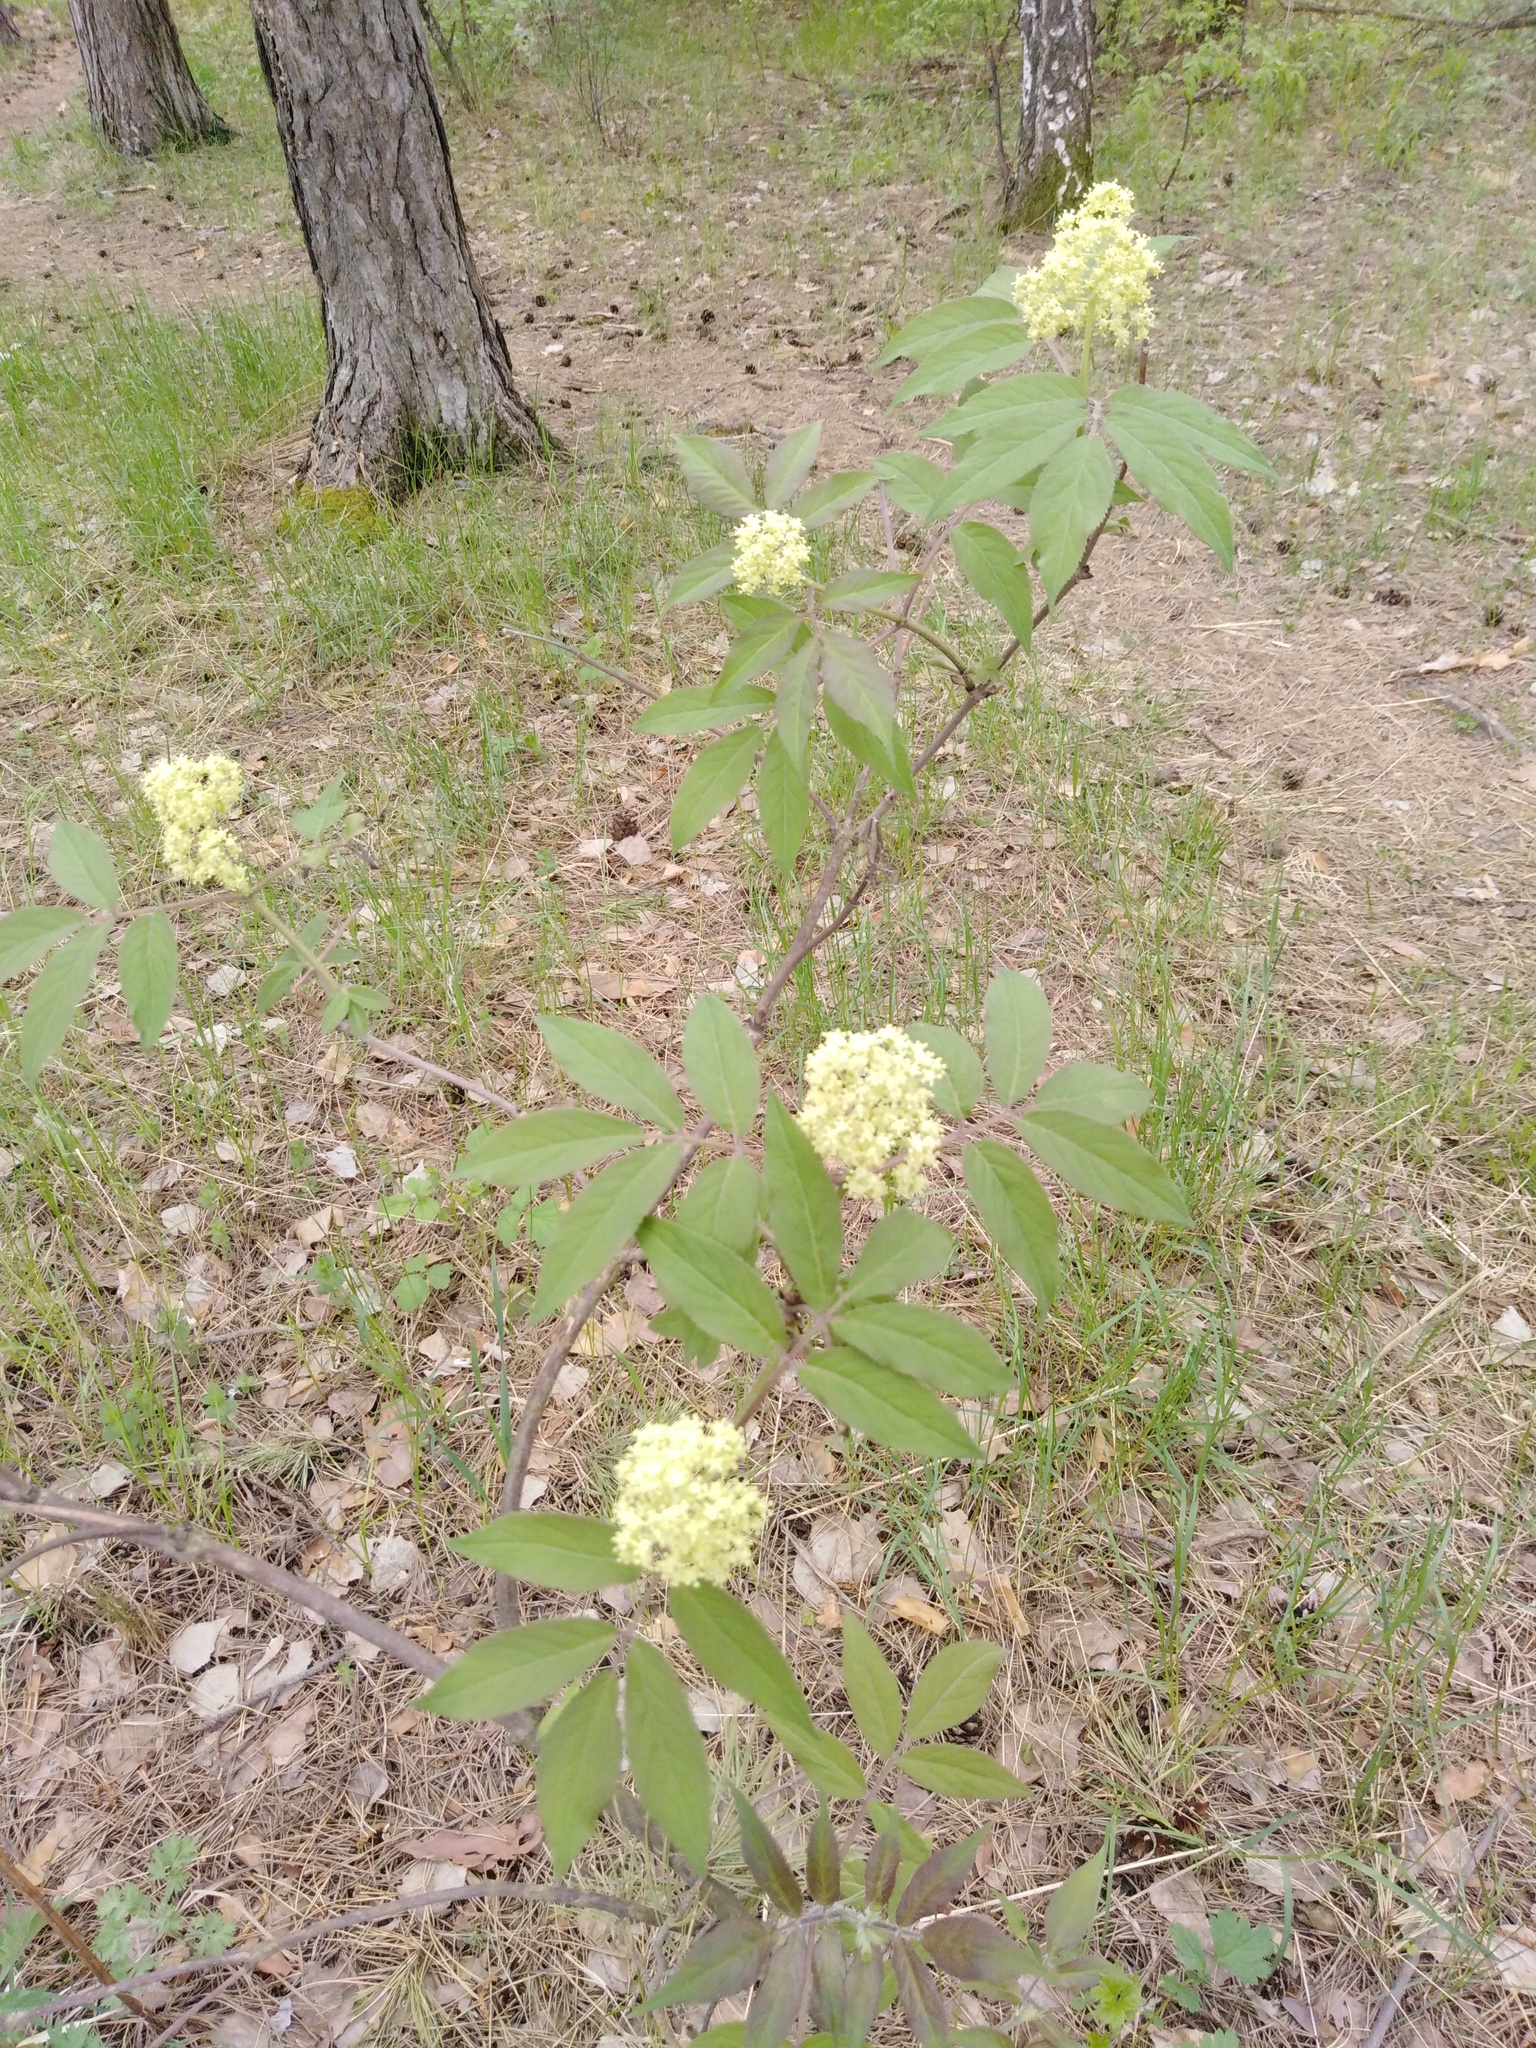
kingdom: Plantae
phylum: Tracheophyta
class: Magnoliopsida
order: Dipsacales
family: Viburnaceae
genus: Sambucus
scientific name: Sambucus racemosa
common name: Red-berried elder
